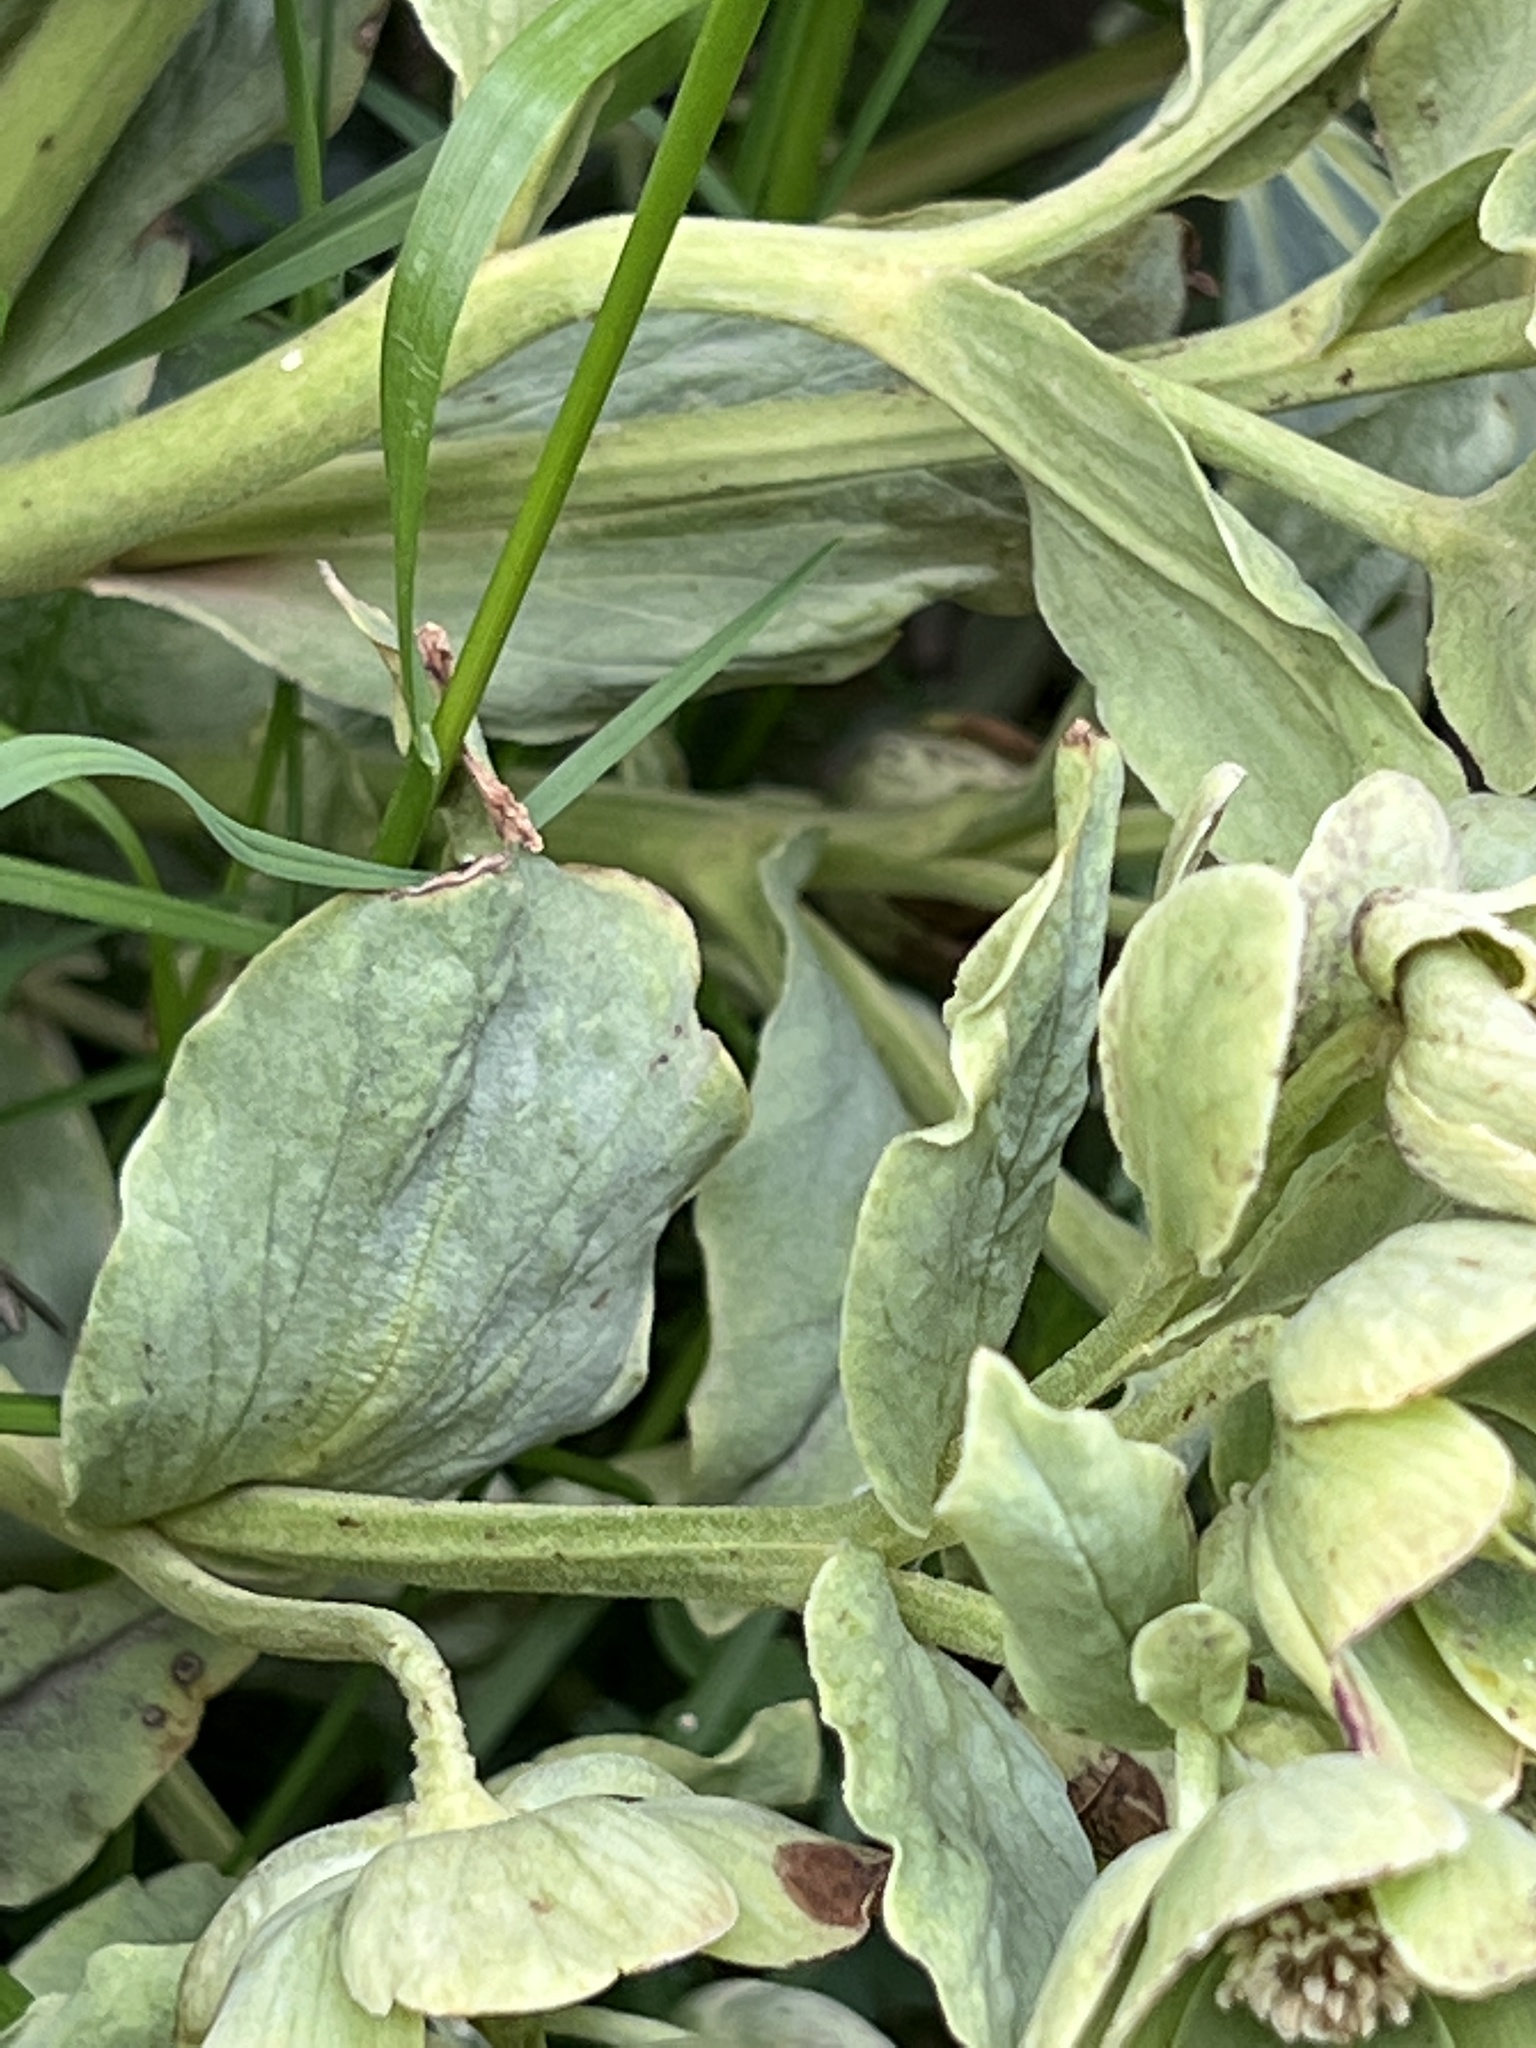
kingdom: Plantae
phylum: Tracheophyta
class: Magnoliopsida
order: Ranunculales
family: Ranunculaceae
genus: Helleborus
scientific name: Helleborus foetidus
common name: Stinking hellebore
